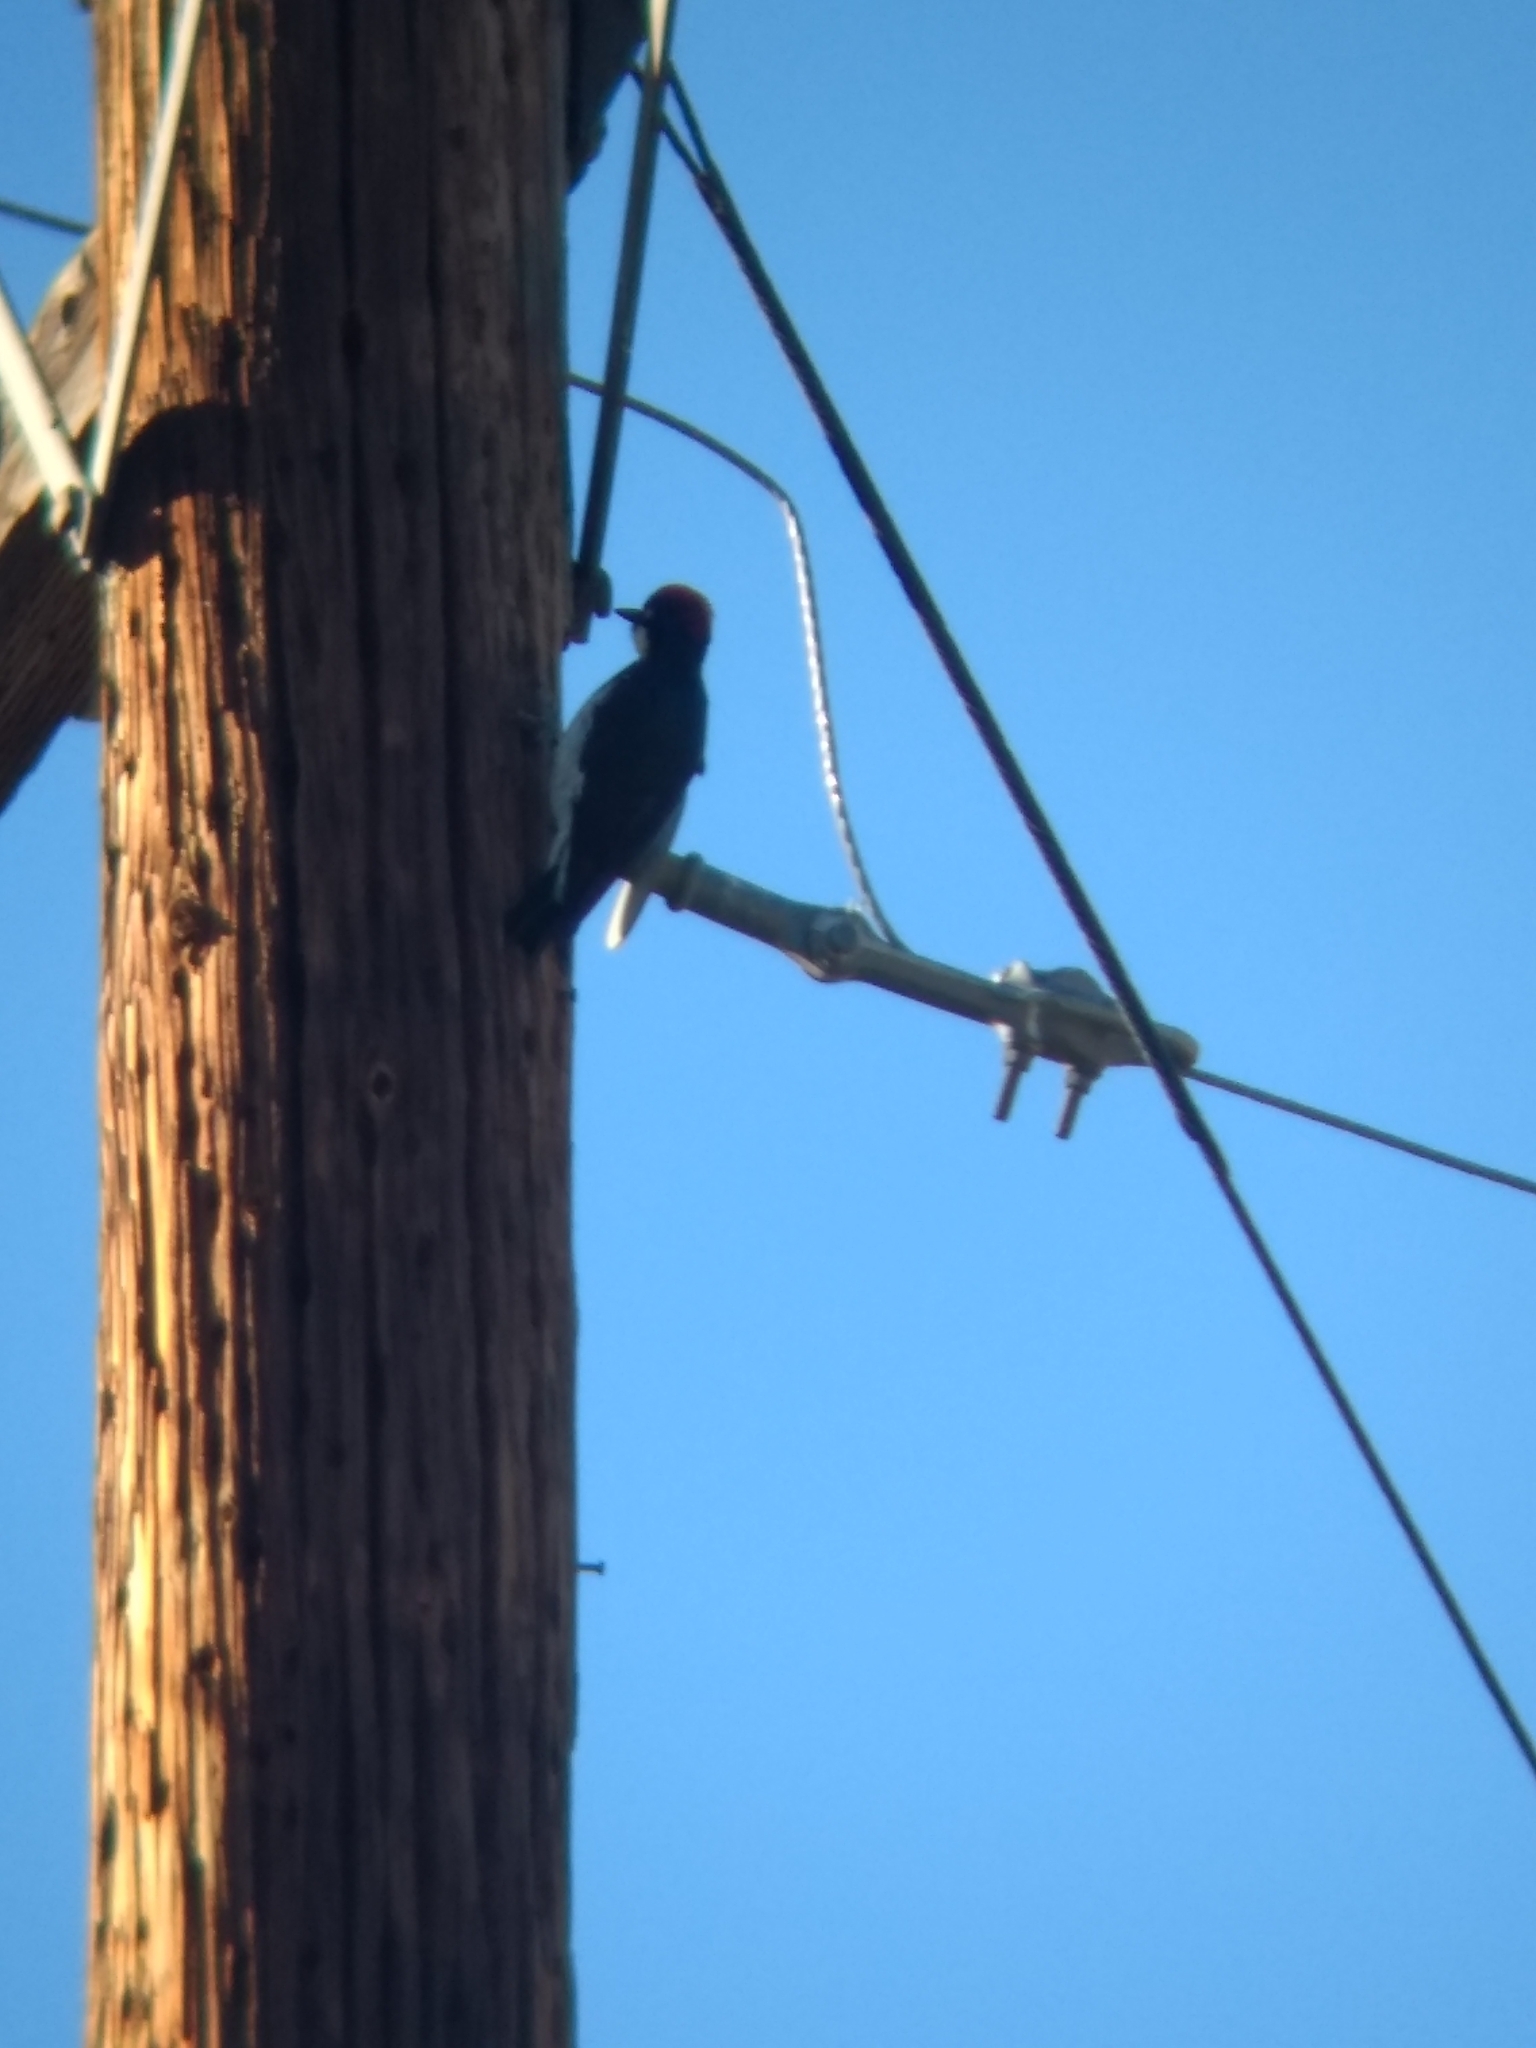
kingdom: Animalia
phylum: Chordata
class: Aves
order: Piciformes
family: Picidae
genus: Melanerpes
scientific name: Melanerpes formicivorus
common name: Acorn woodpecker
